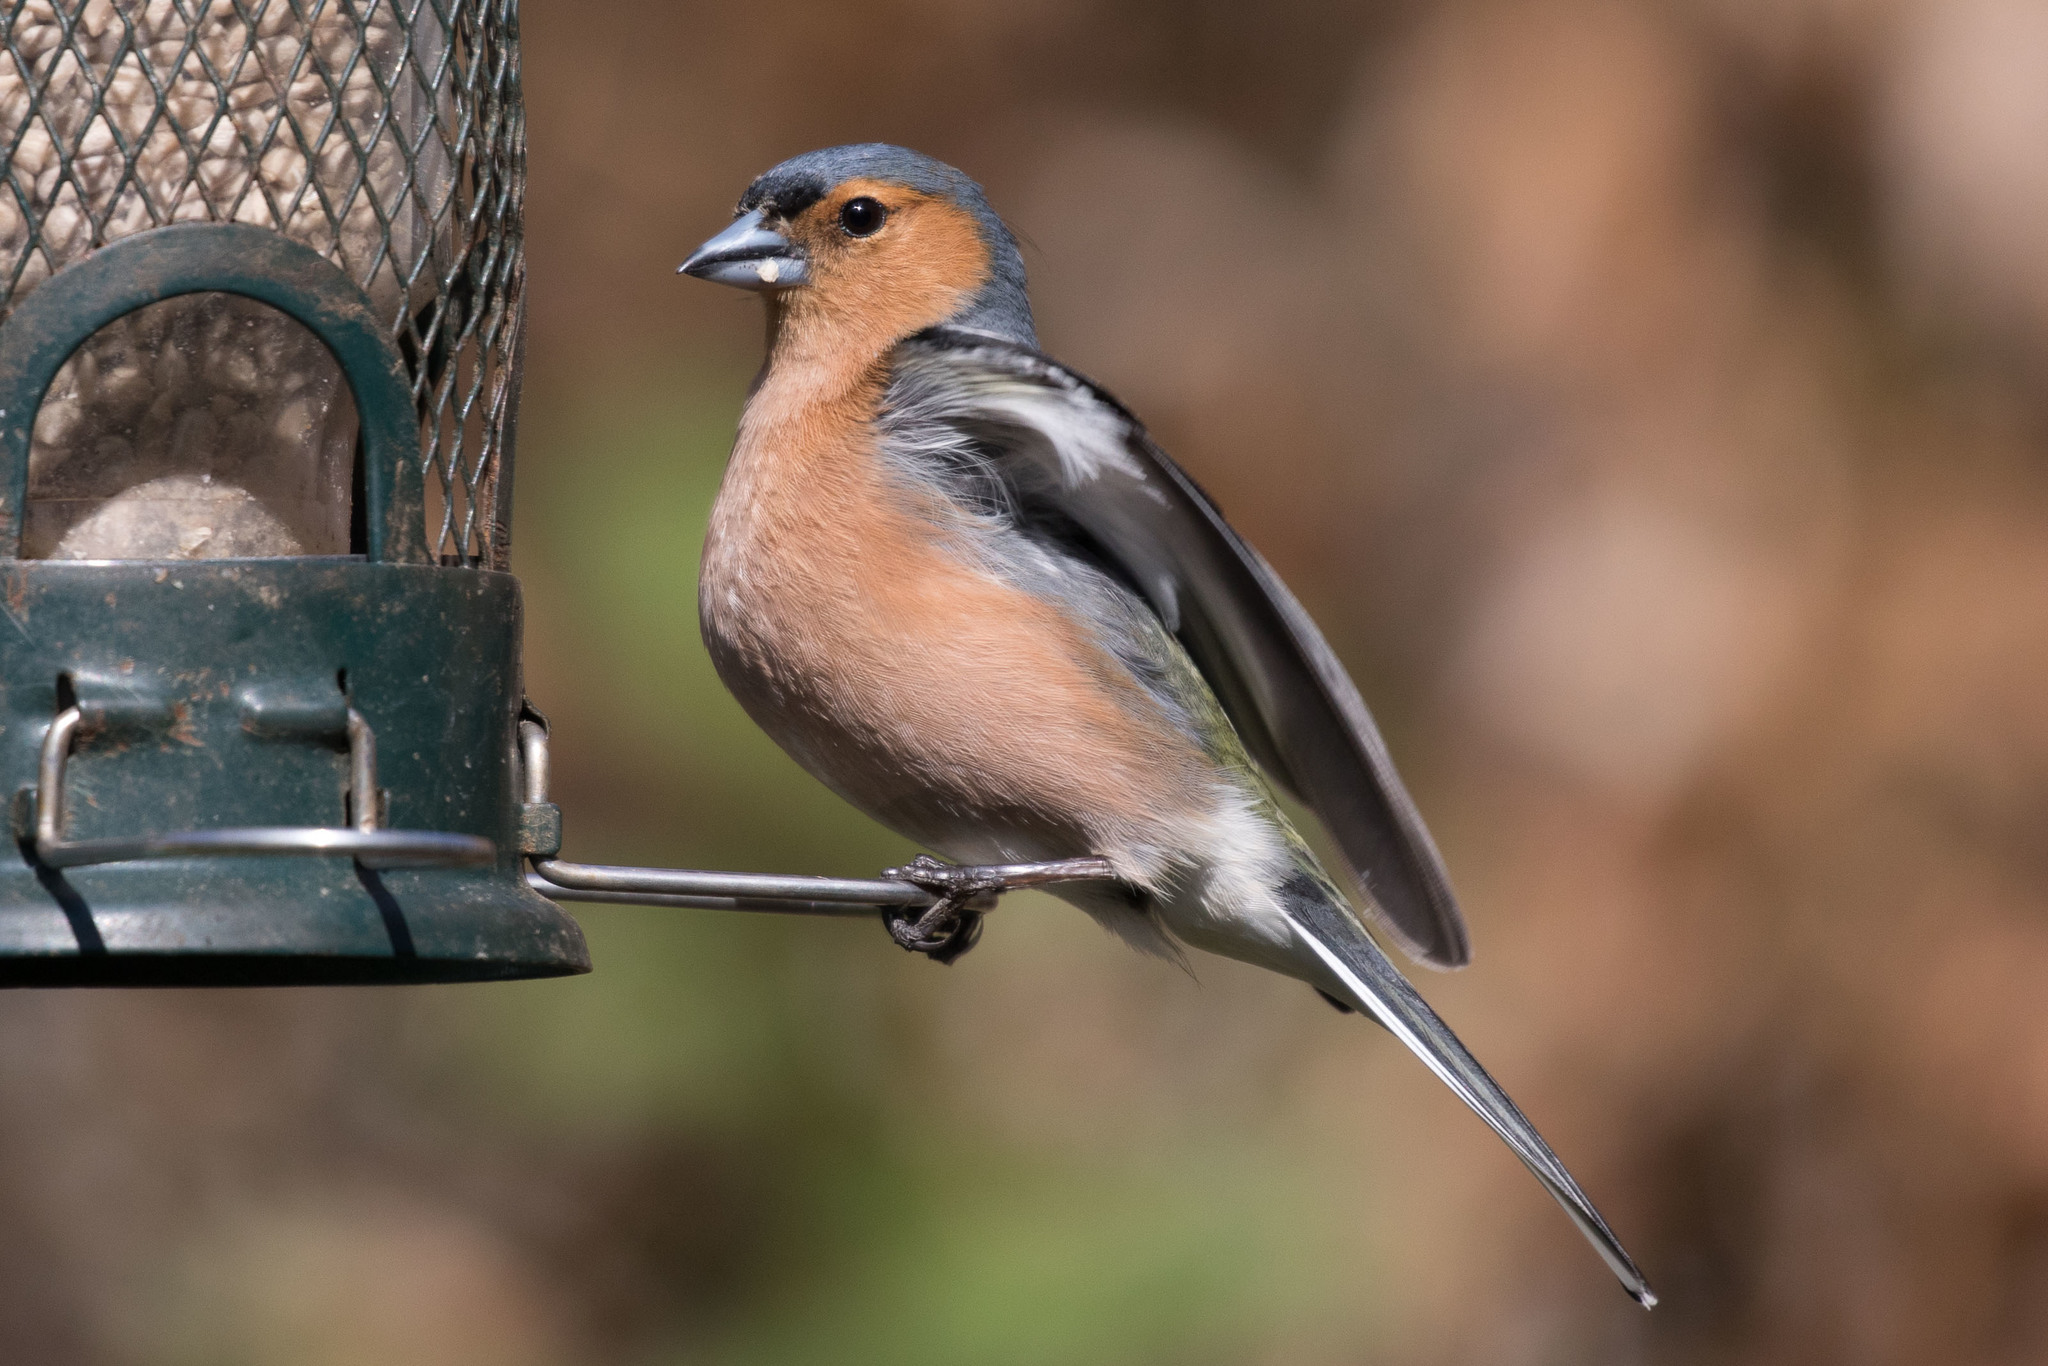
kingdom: Animalia
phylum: Chordata
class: Aves
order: Passeriformes
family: Fringillidae
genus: Fringilla
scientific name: Fringilla coelebs
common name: Common chaffinch
